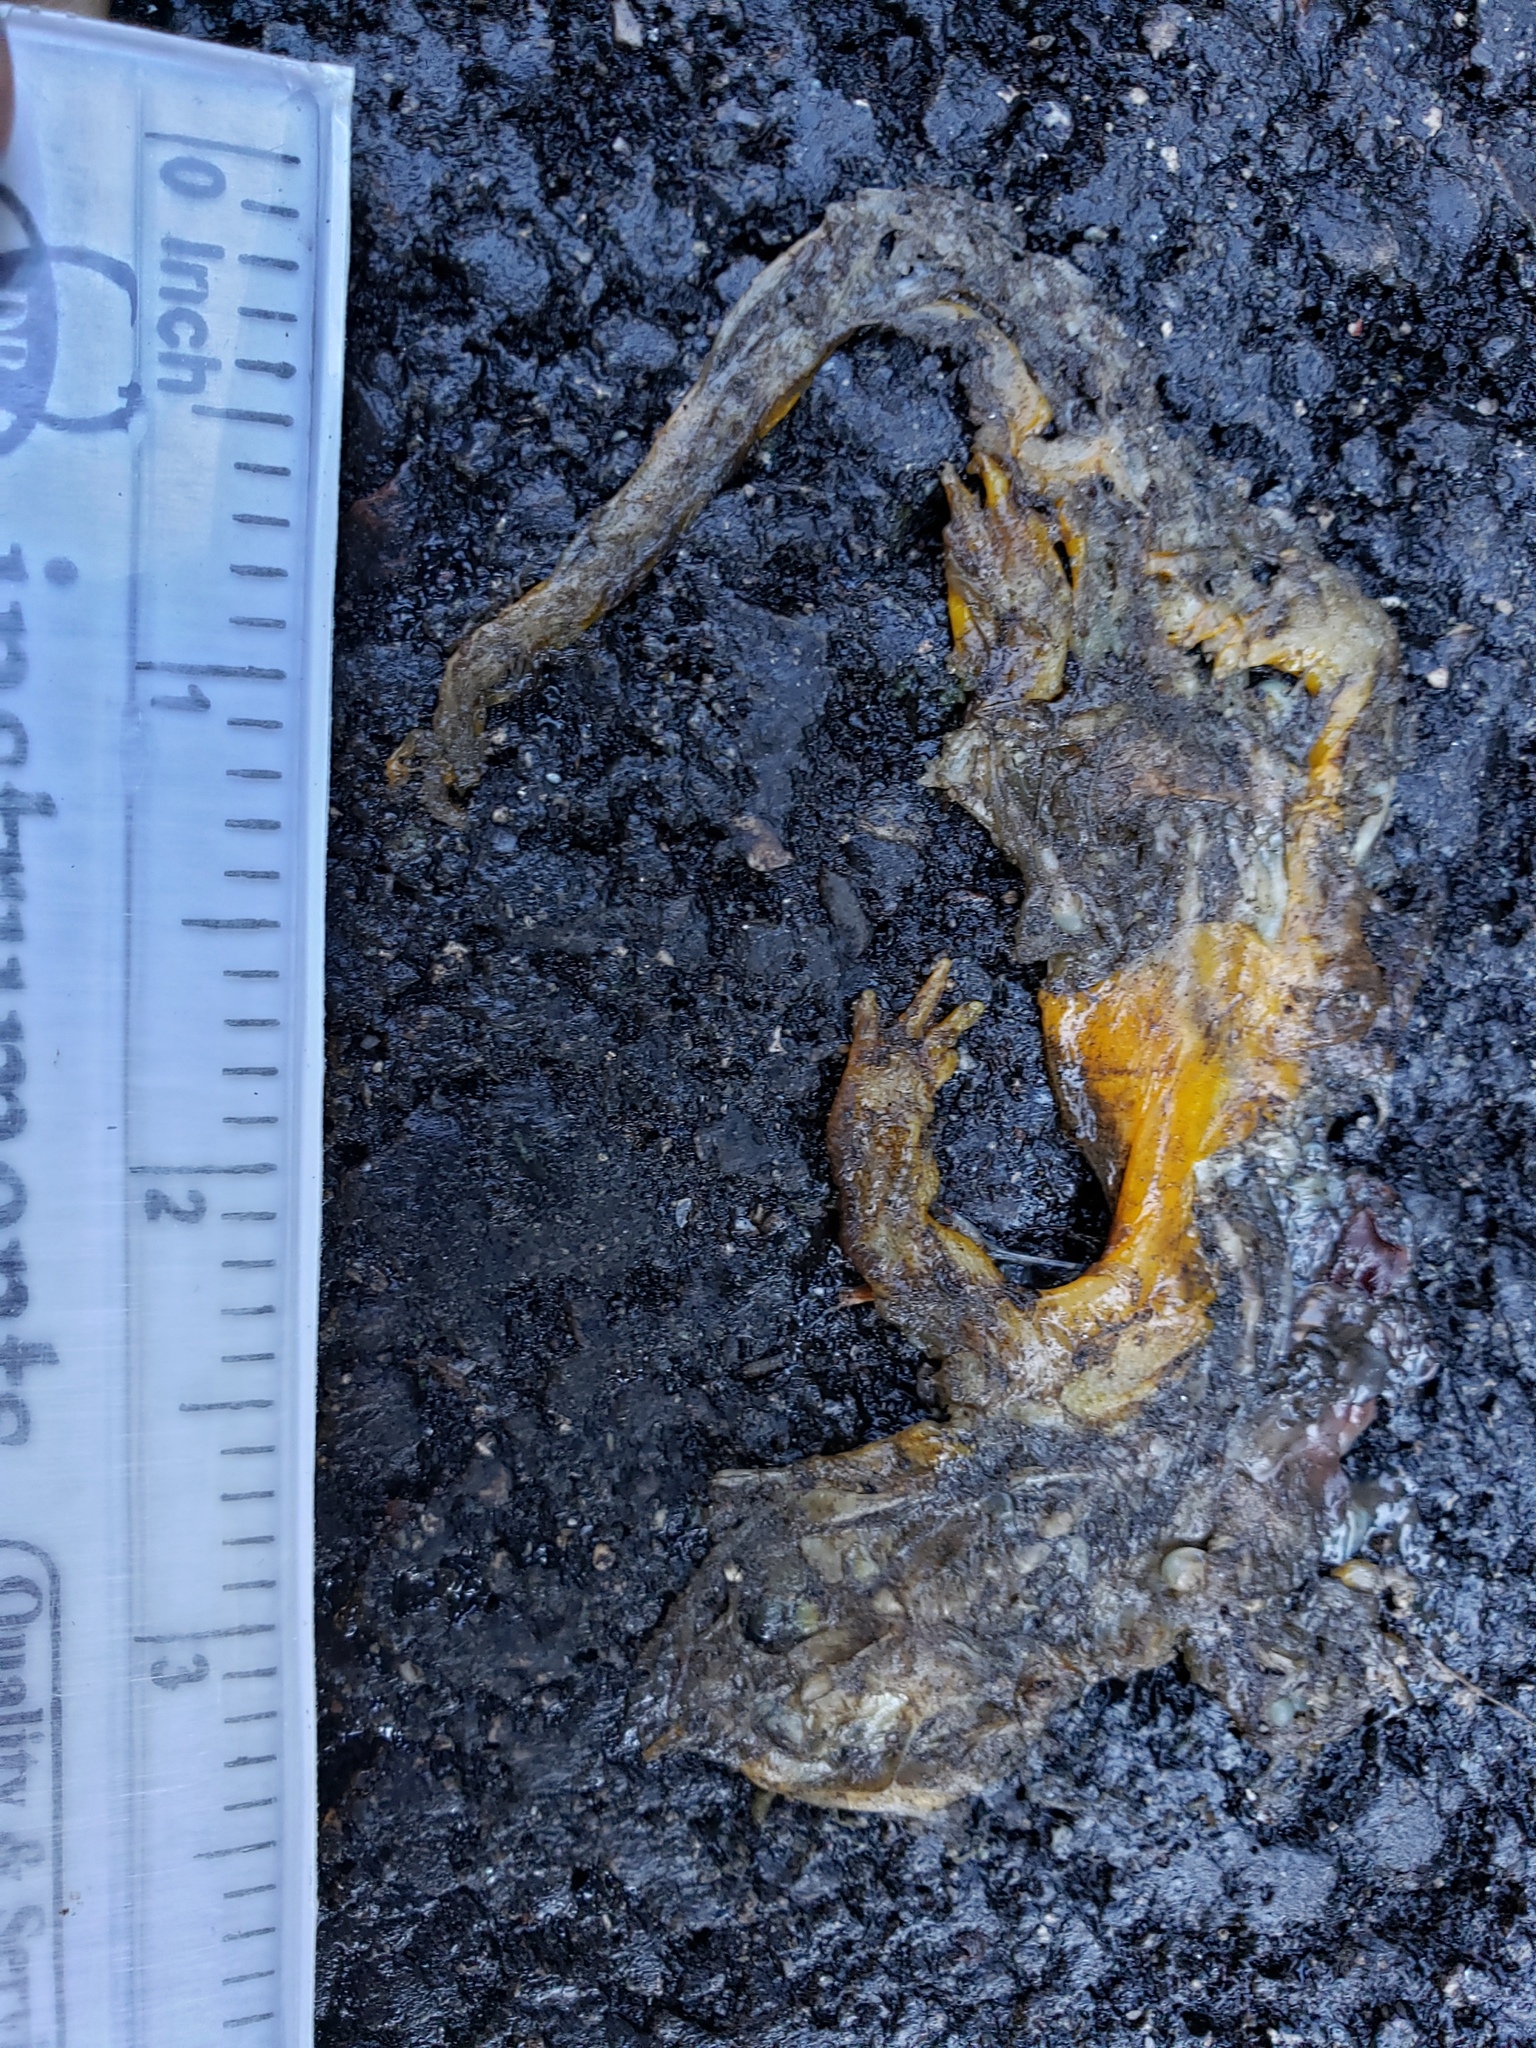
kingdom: Animalia
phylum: Chordata
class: Amphibia
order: Caudata
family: Salamandridae
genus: Taricha
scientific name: Taricha
